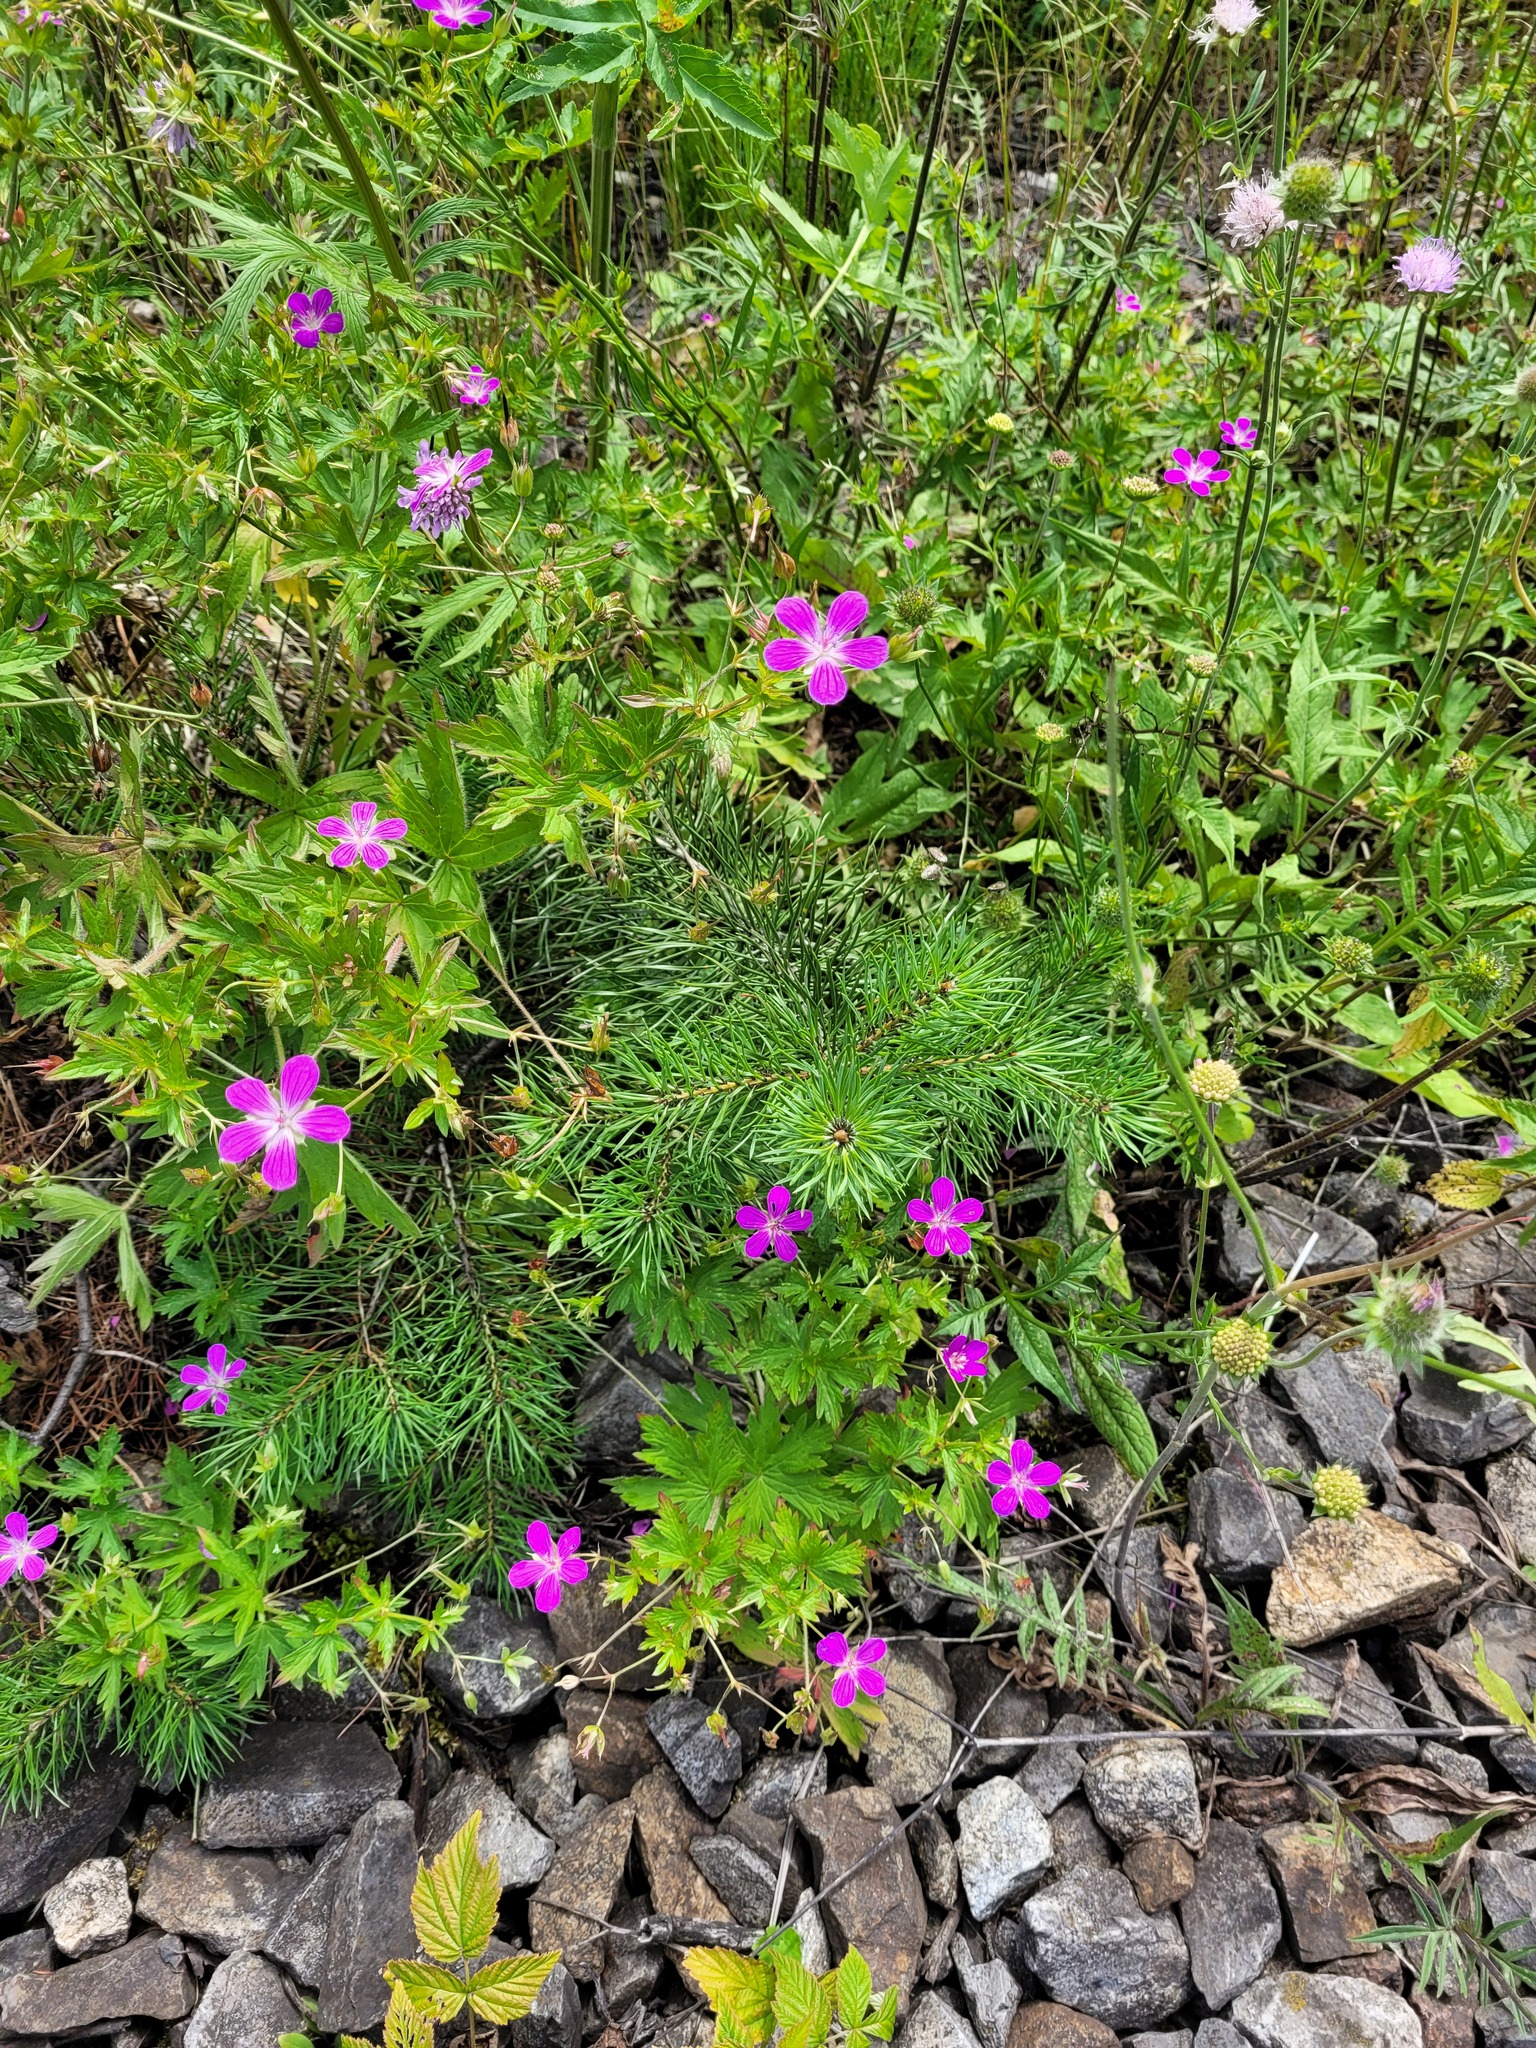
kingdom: Plantae
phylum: Tracheophyta
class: Magnoliopsida
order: Geraniales
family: Geraniaceae
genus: Geranium
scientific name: Geranium palustre
